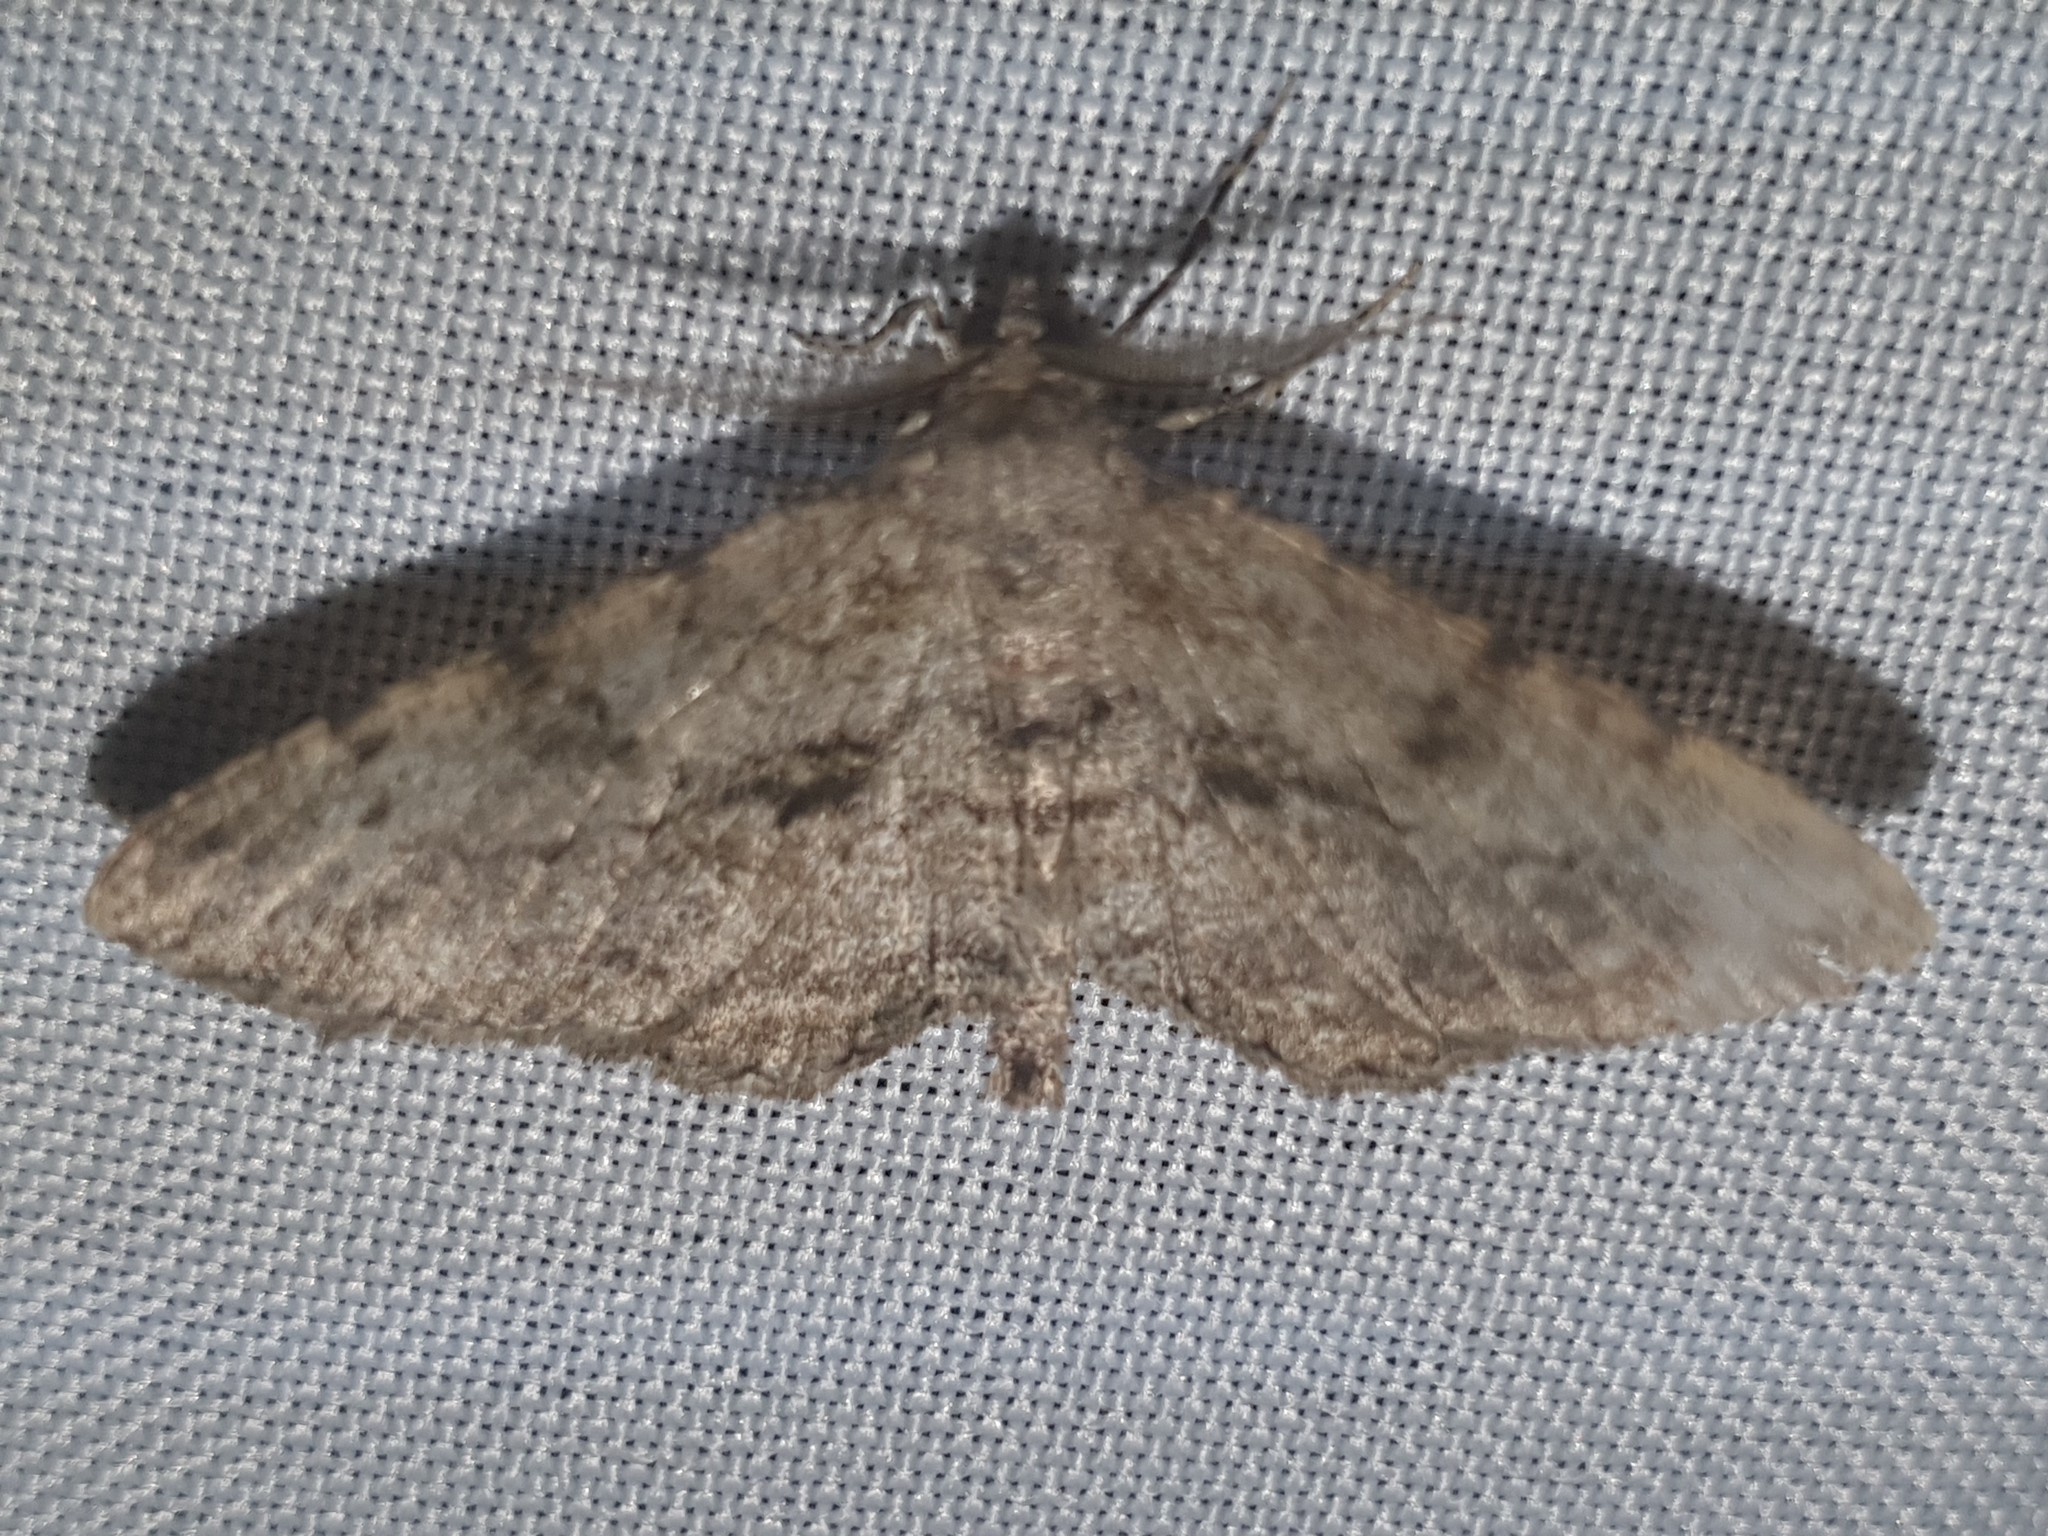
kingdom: Animalia
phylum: Arthropoda
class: Insecta
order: Lepidoptera
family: Geometridae
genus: Peribatodes
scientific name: Peribatodes rhomboidaria
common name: Willow beauty
